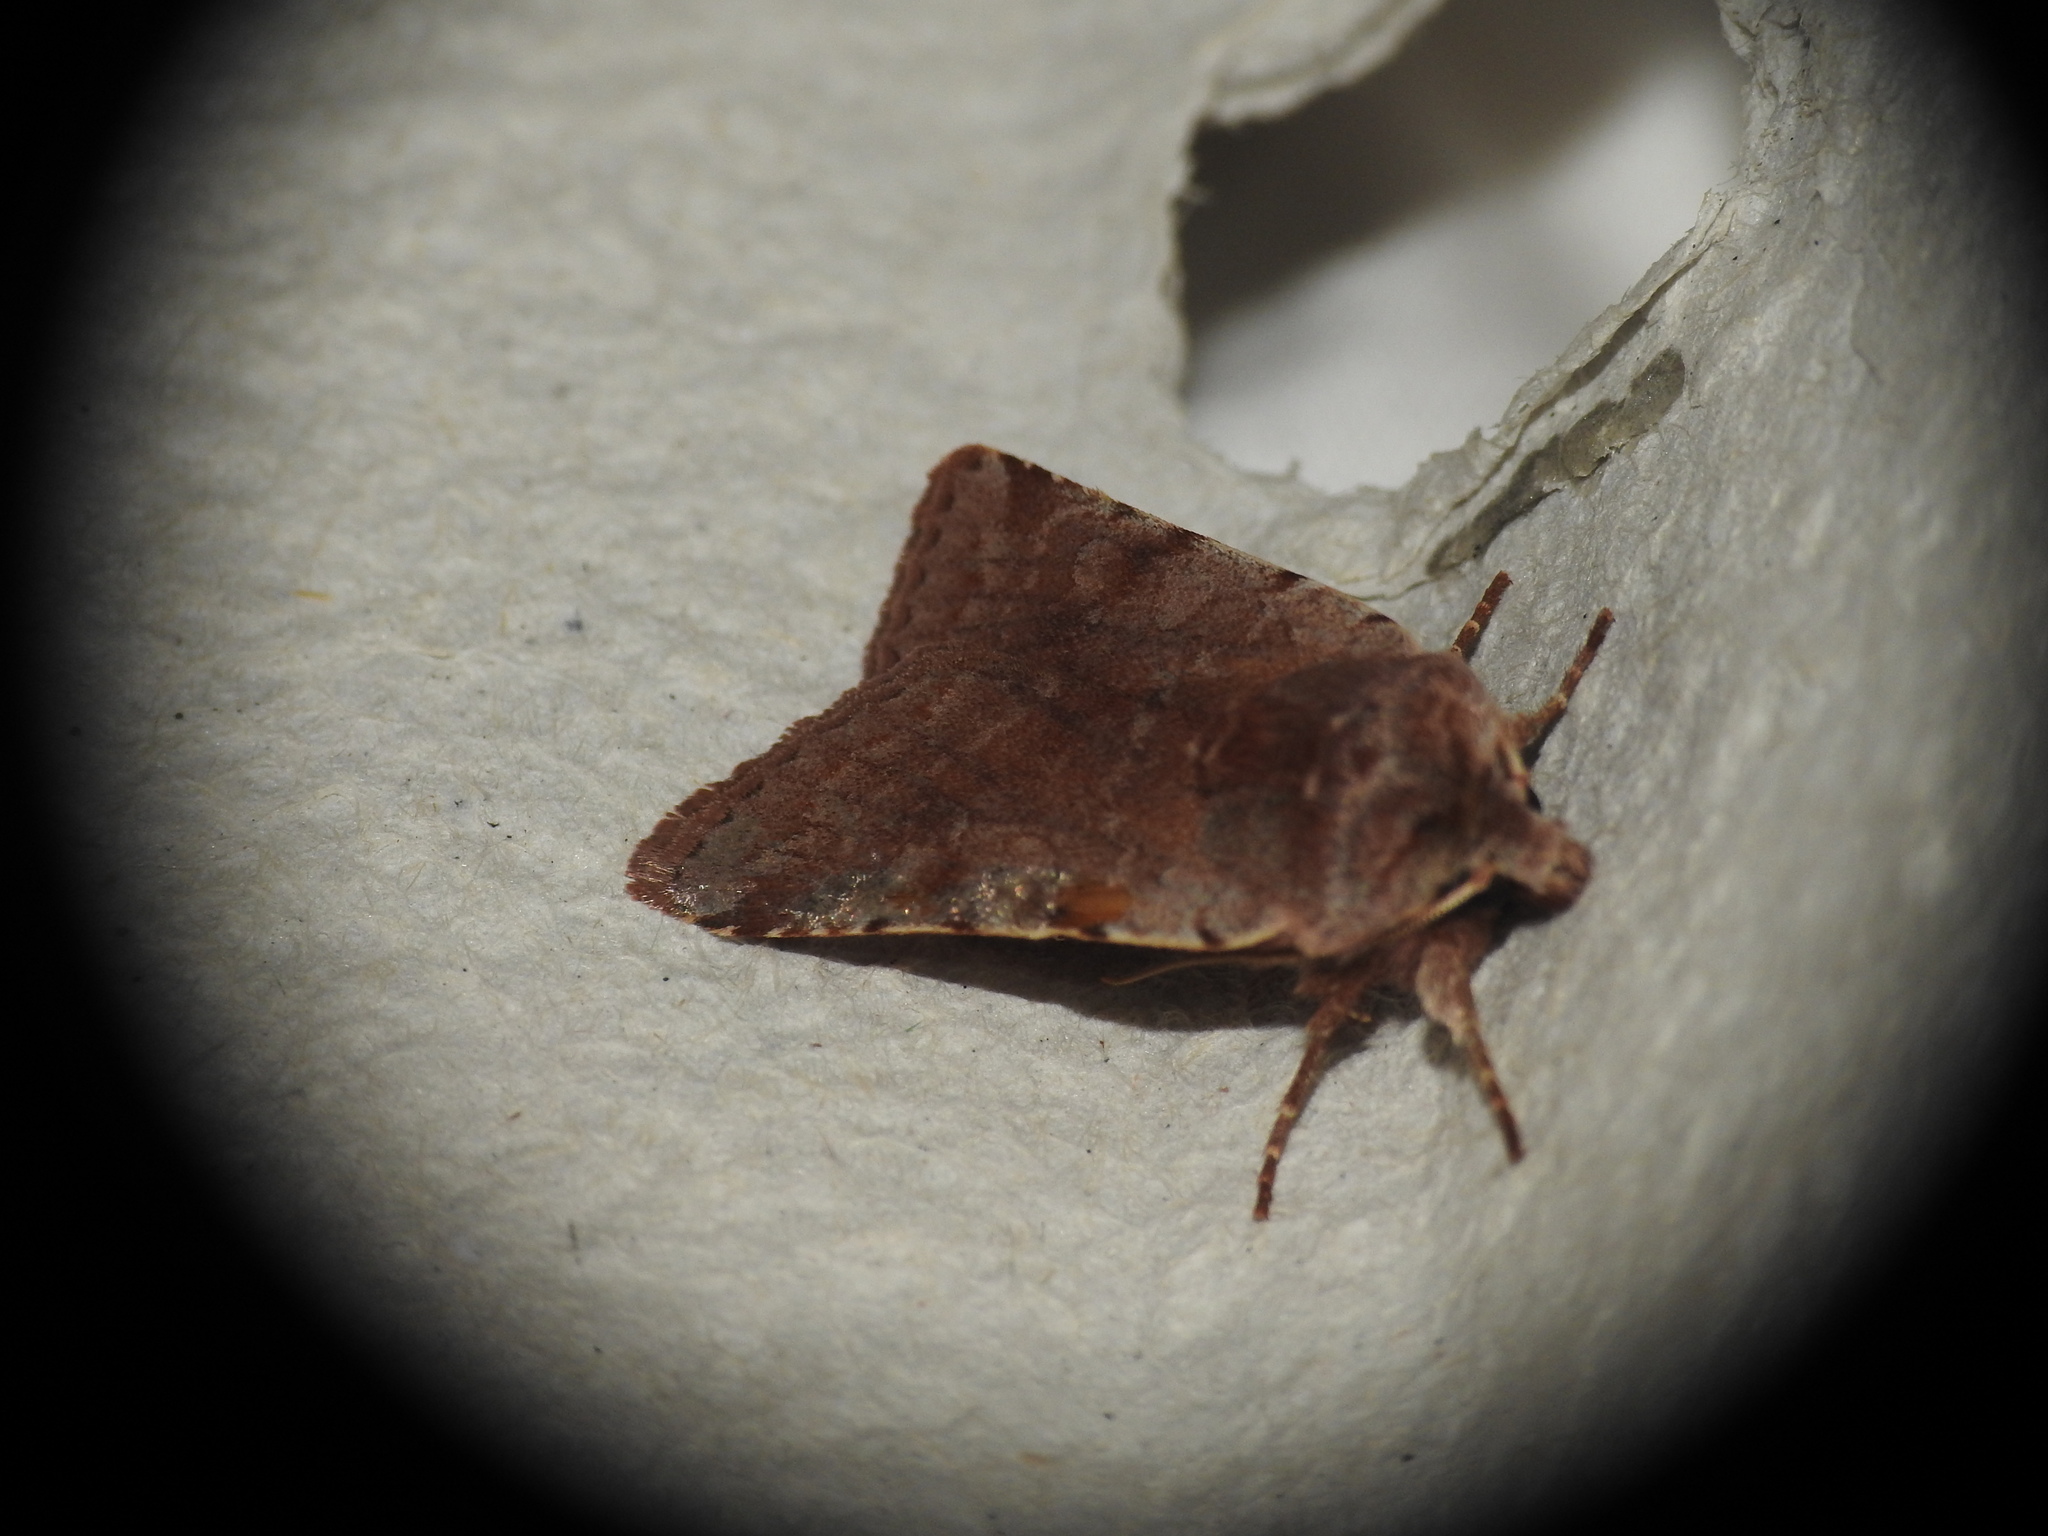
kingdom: Animalia
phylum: Arthropoda
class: Insecta
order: Lepidoptera
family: Noctuidae
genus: Cerastis
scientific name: Cerastis rubricosa
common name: Red chestnut
